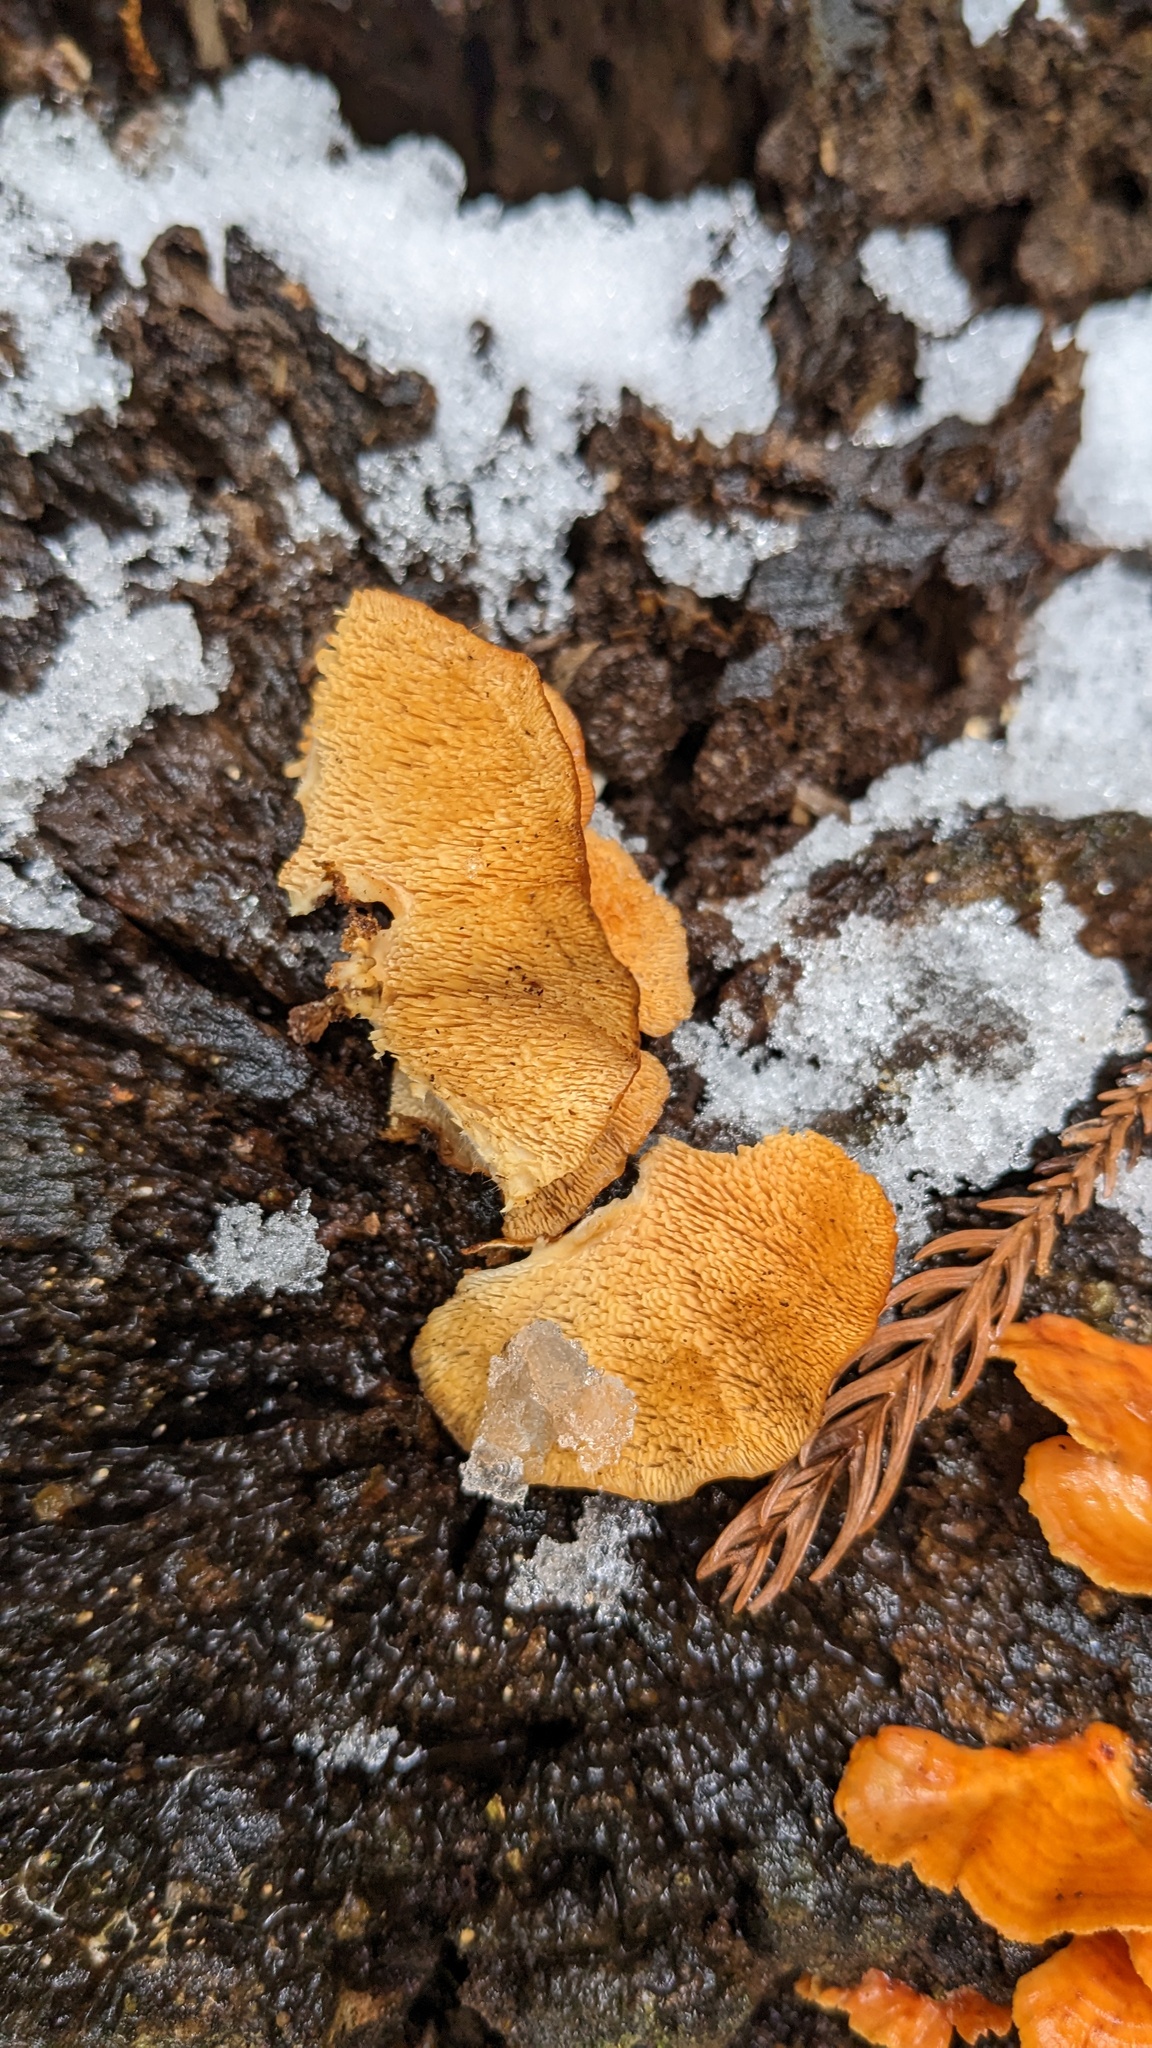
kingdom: Fungi
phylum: Basidiomycota
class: Agaricomycetes
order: Polyporales
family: Irpicaceae
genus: Irpex
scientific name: Irpex consors
